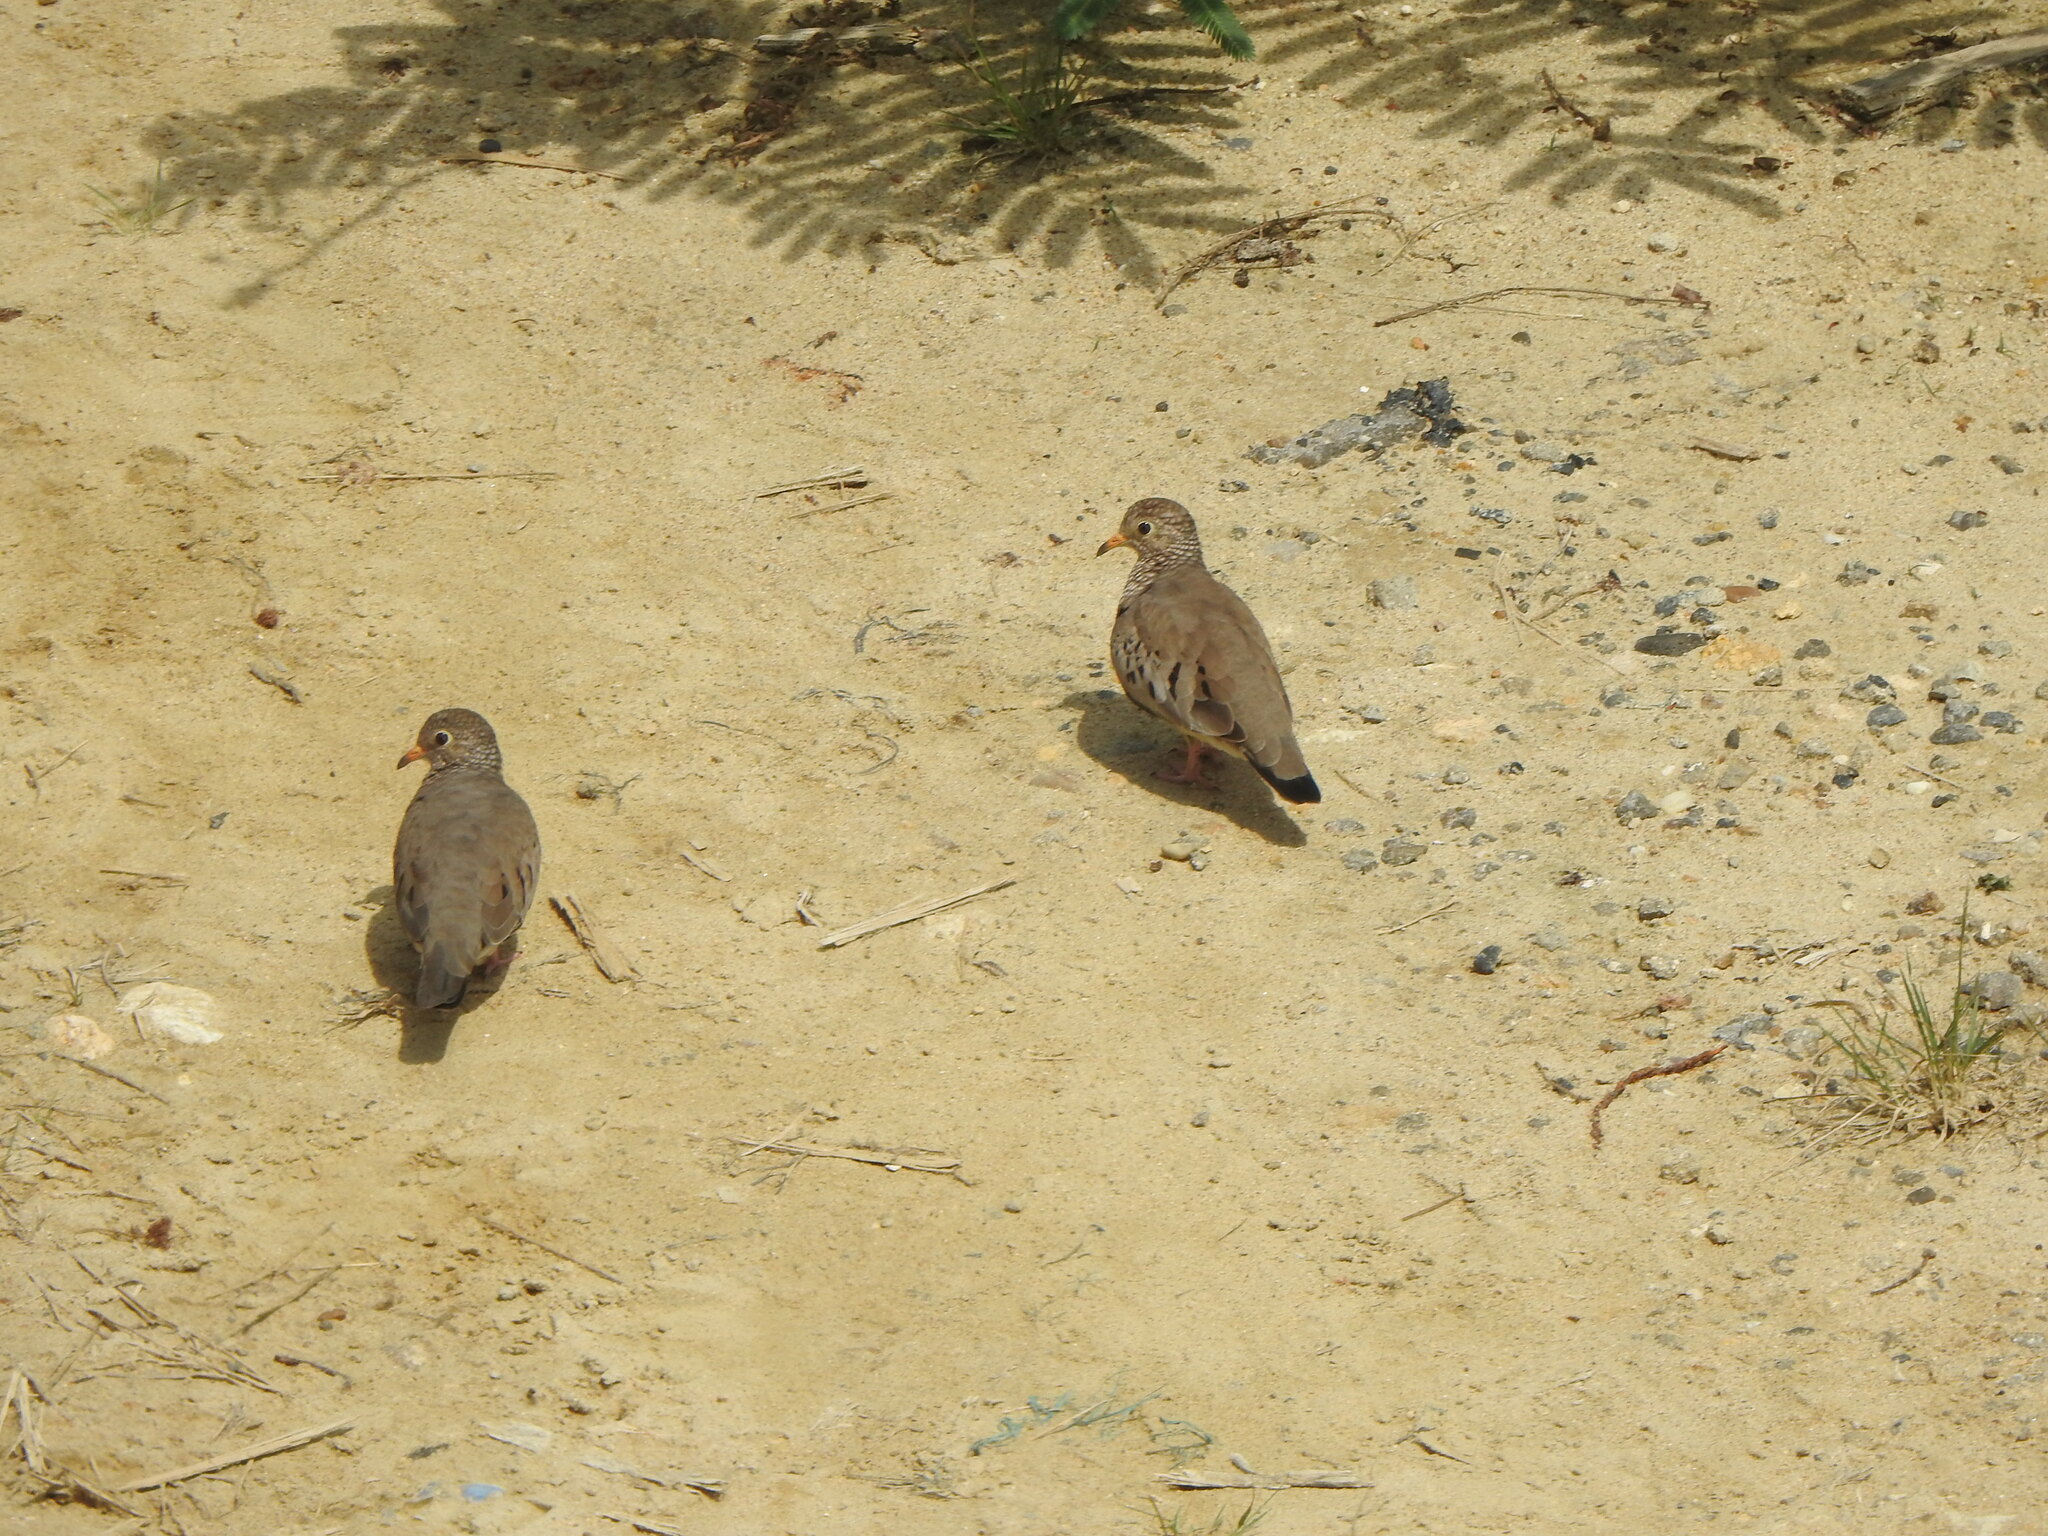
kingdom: Animalia
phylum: Chordata
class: Aves
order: Columbiformes
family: Columbidae
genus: Columbina
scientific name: Columbina passerina
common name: Common ground-dove
